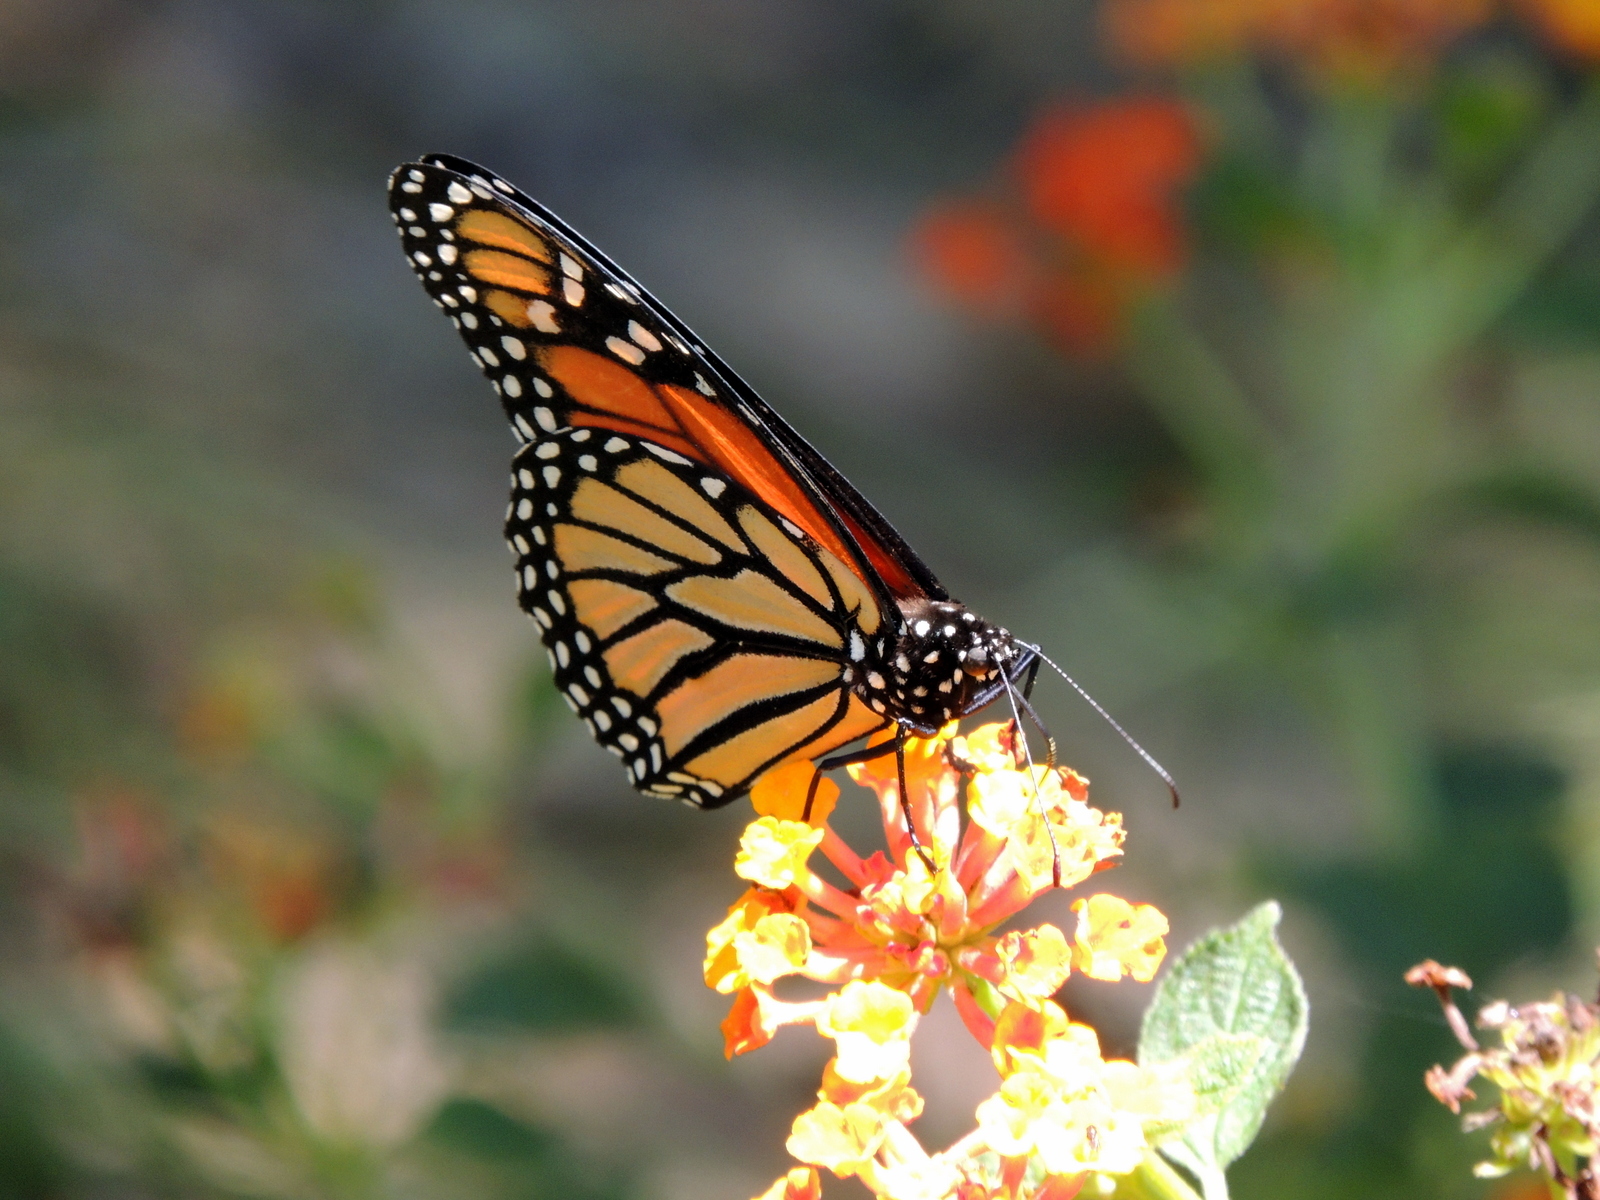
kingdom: Animalia
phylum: Arthropoda
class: Insecta
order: Lepidoptera
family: Nymphalidae
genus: Danaus
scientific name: Danaus plexippus
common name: Monarch
